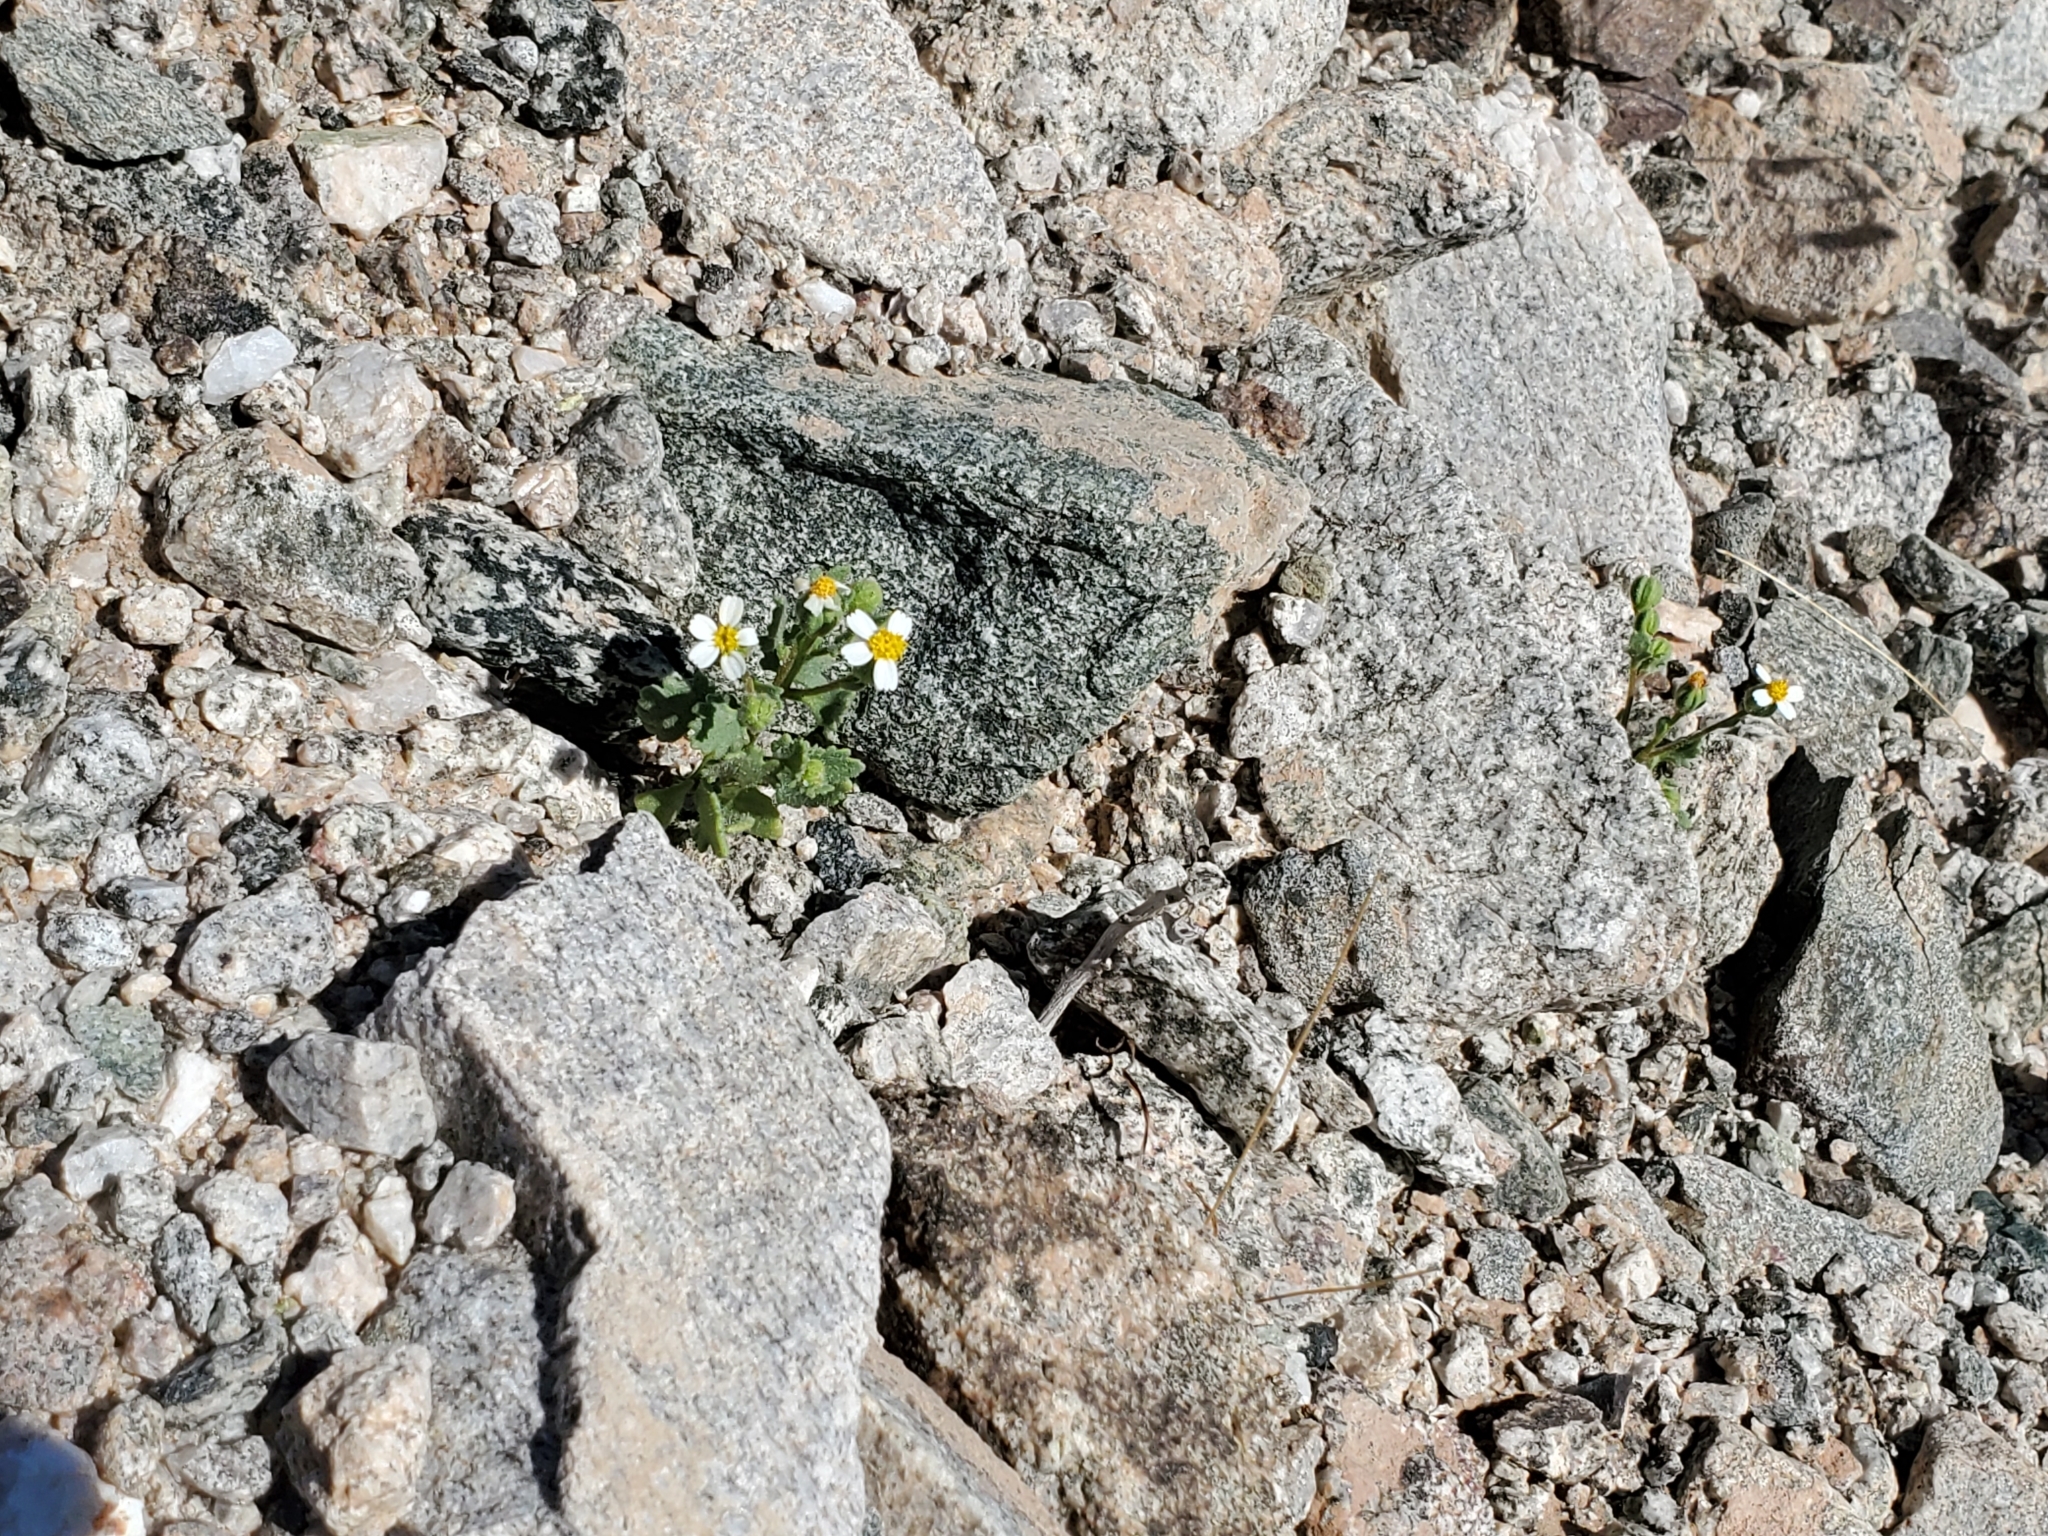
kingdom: Plantae
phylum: Tracheophyta
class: Magnoliopsida
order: Asterales
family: Asteraceae
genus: Laphamia
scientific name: Laphamia emoryi
